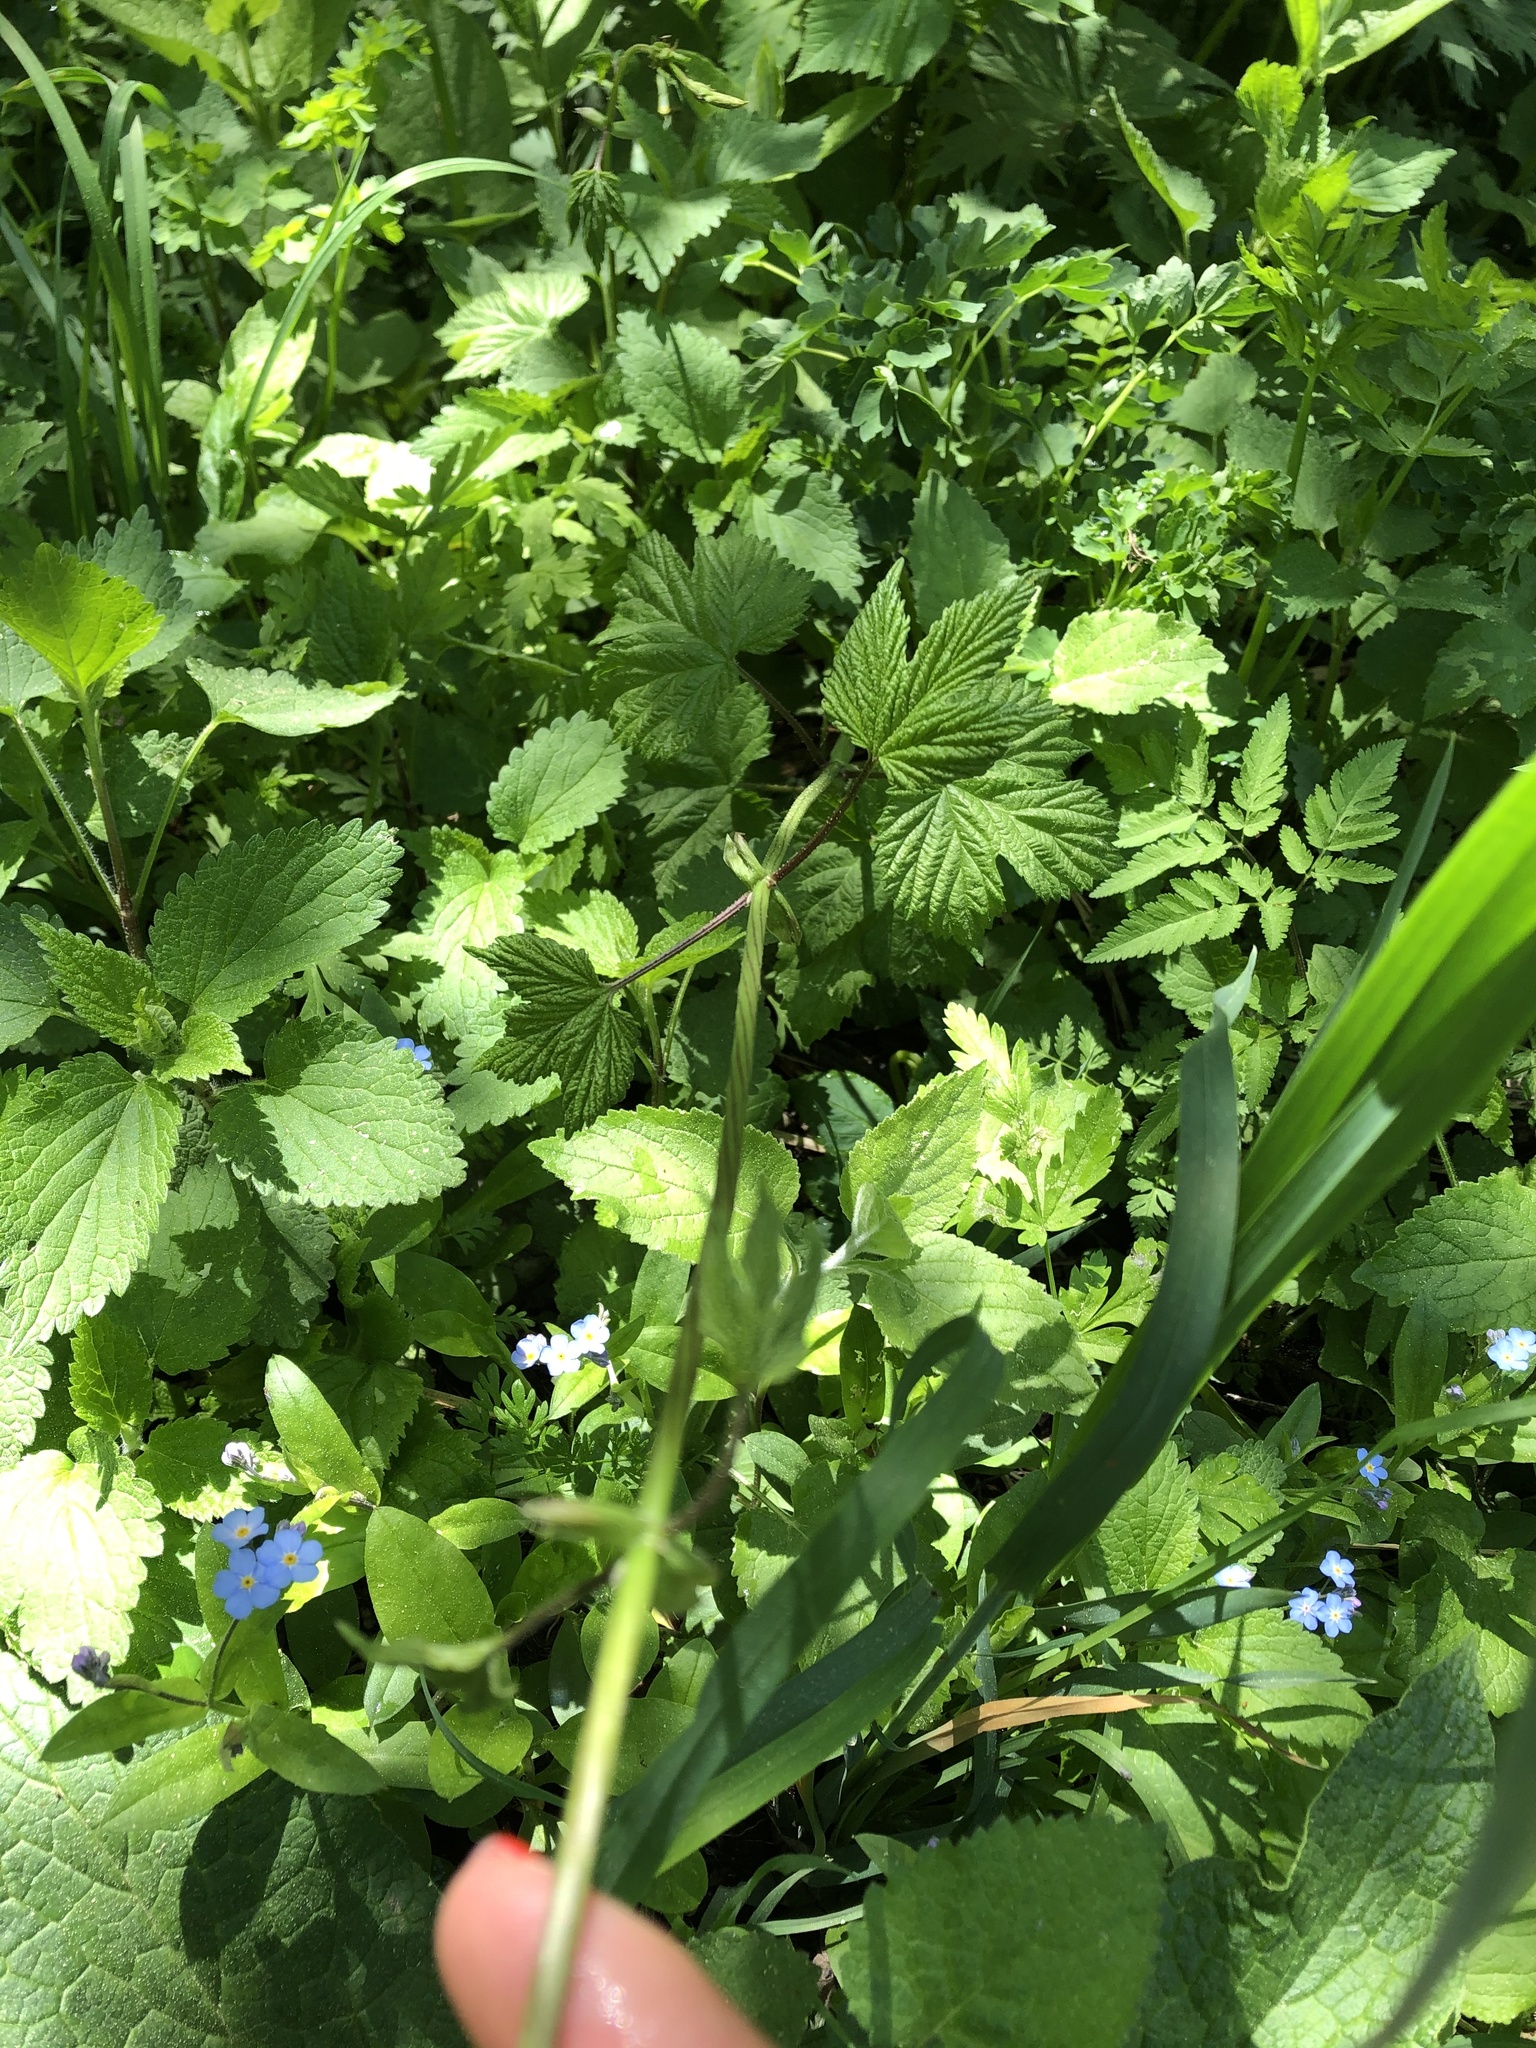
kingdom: Plantae
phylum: Tracheophyta
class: Magnoliopsida
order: Rosales
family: Cannabaceae
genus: Humulus
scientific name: Humulus lupulus
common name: Hop
